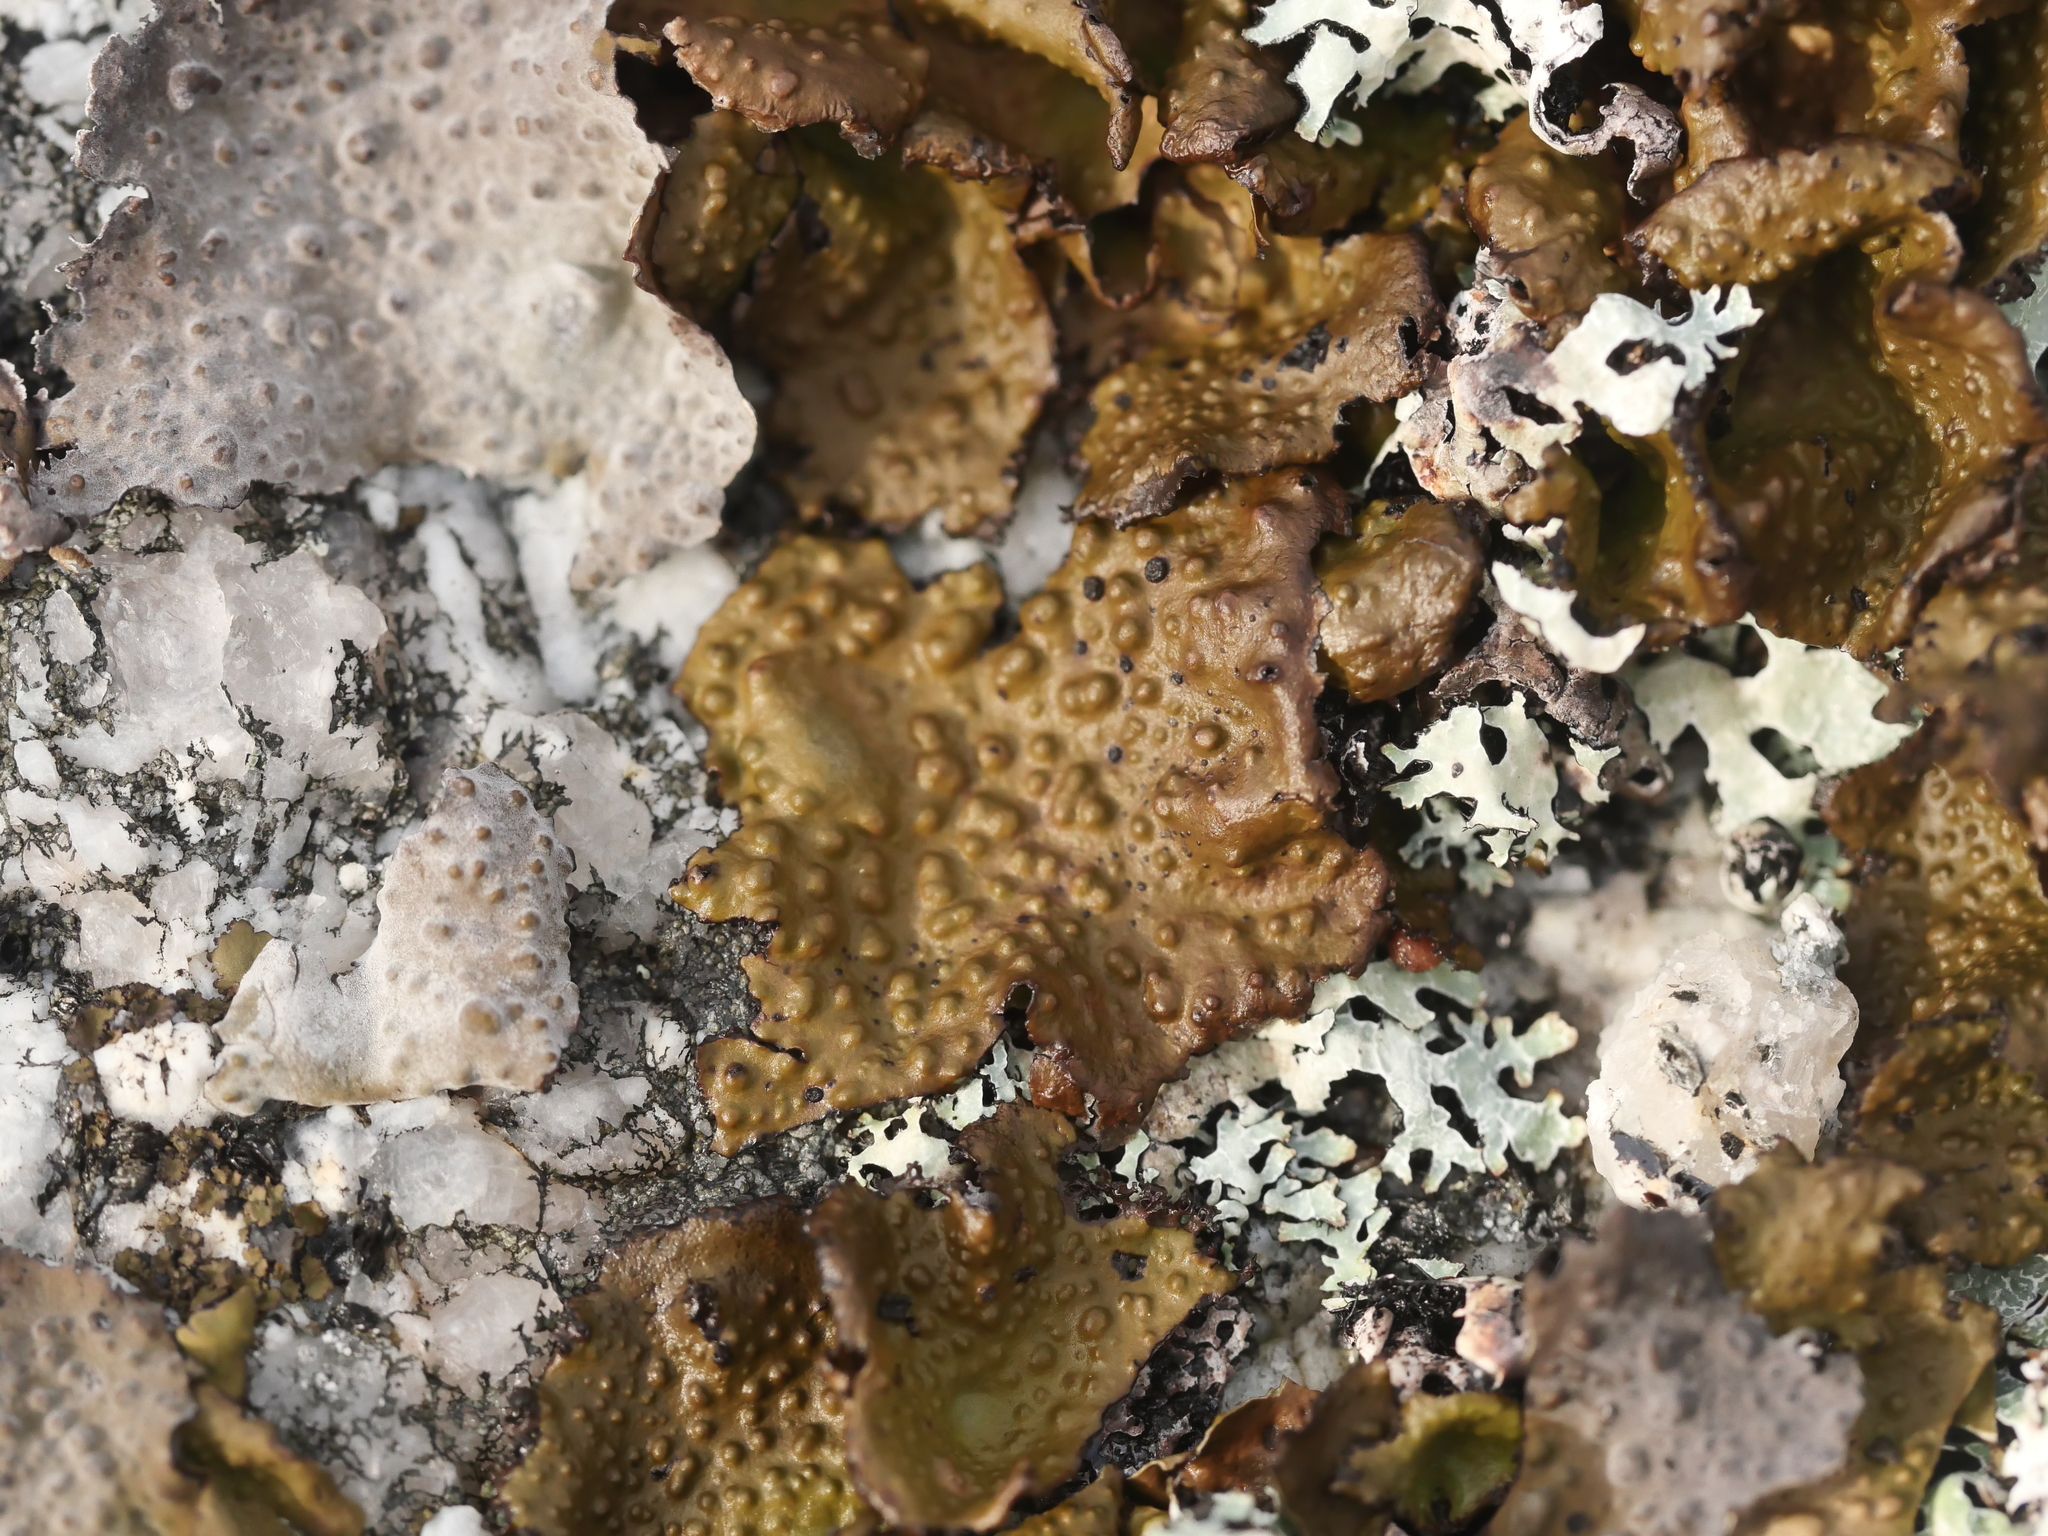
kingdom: Fungi
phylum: Ascomycota
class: Lecanoromycetes
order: Umbilicariales
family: Umbilicariaceae
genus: Lasallia
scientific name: Lasallia papulosa
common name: Common toadskin lichen
